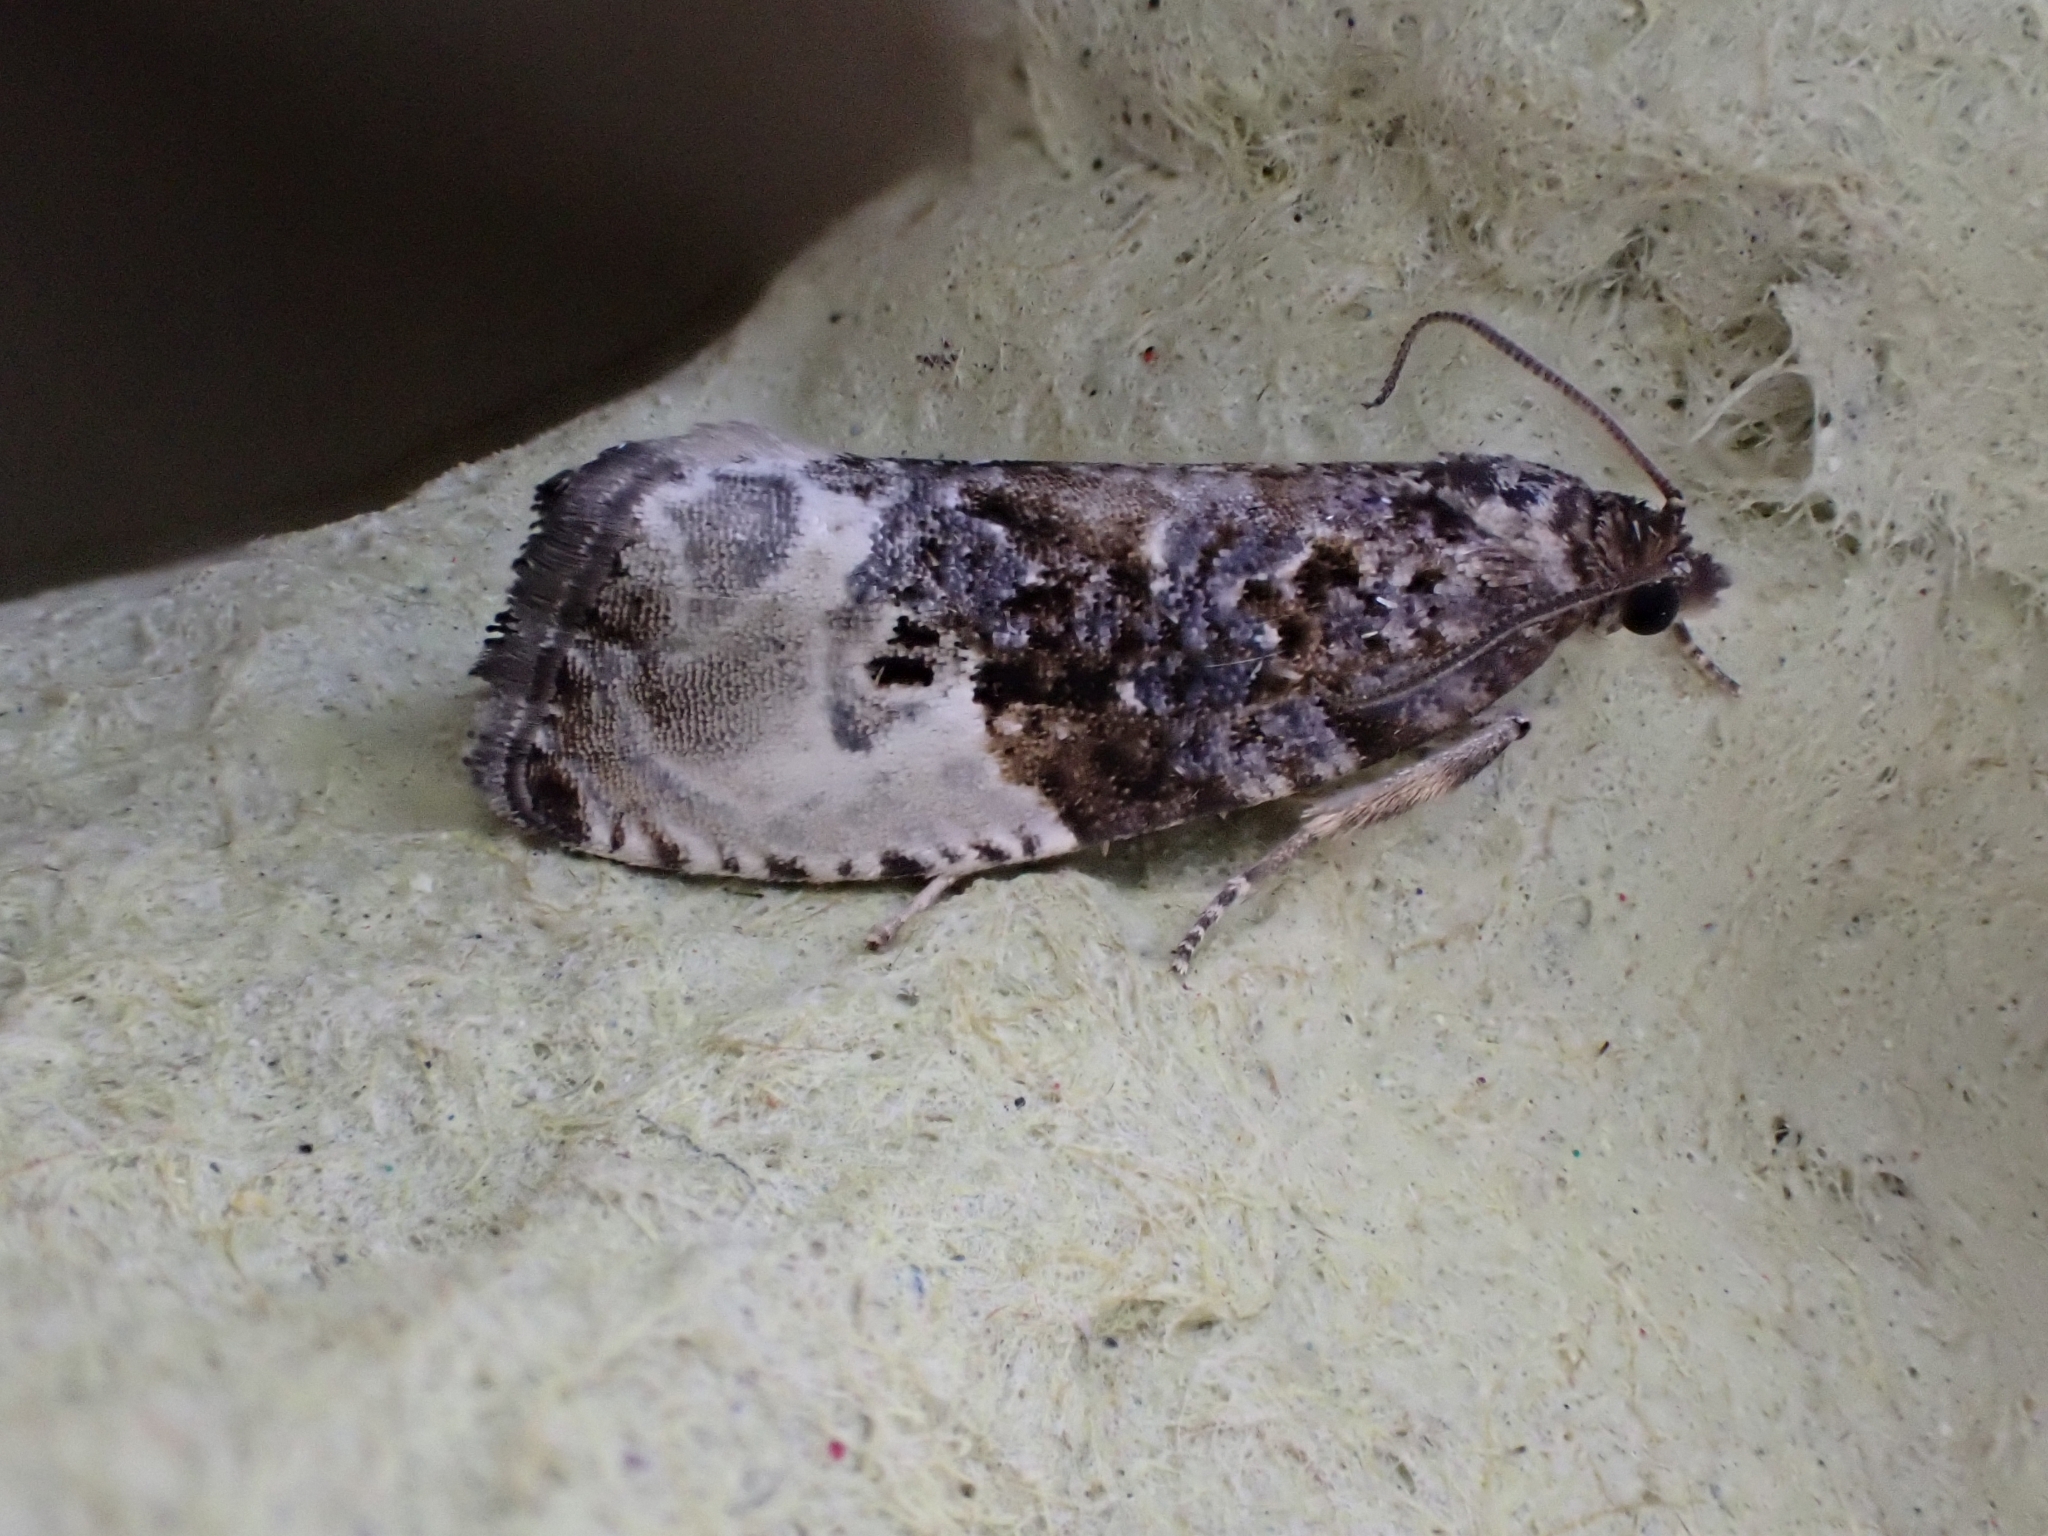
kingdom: Animalia
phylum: Arthropoda
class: Insecta
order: Lepidoptera
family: Tortricidae
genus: Hedya
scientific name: Hedya nubiferana
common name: Marbled orchard tortrix
